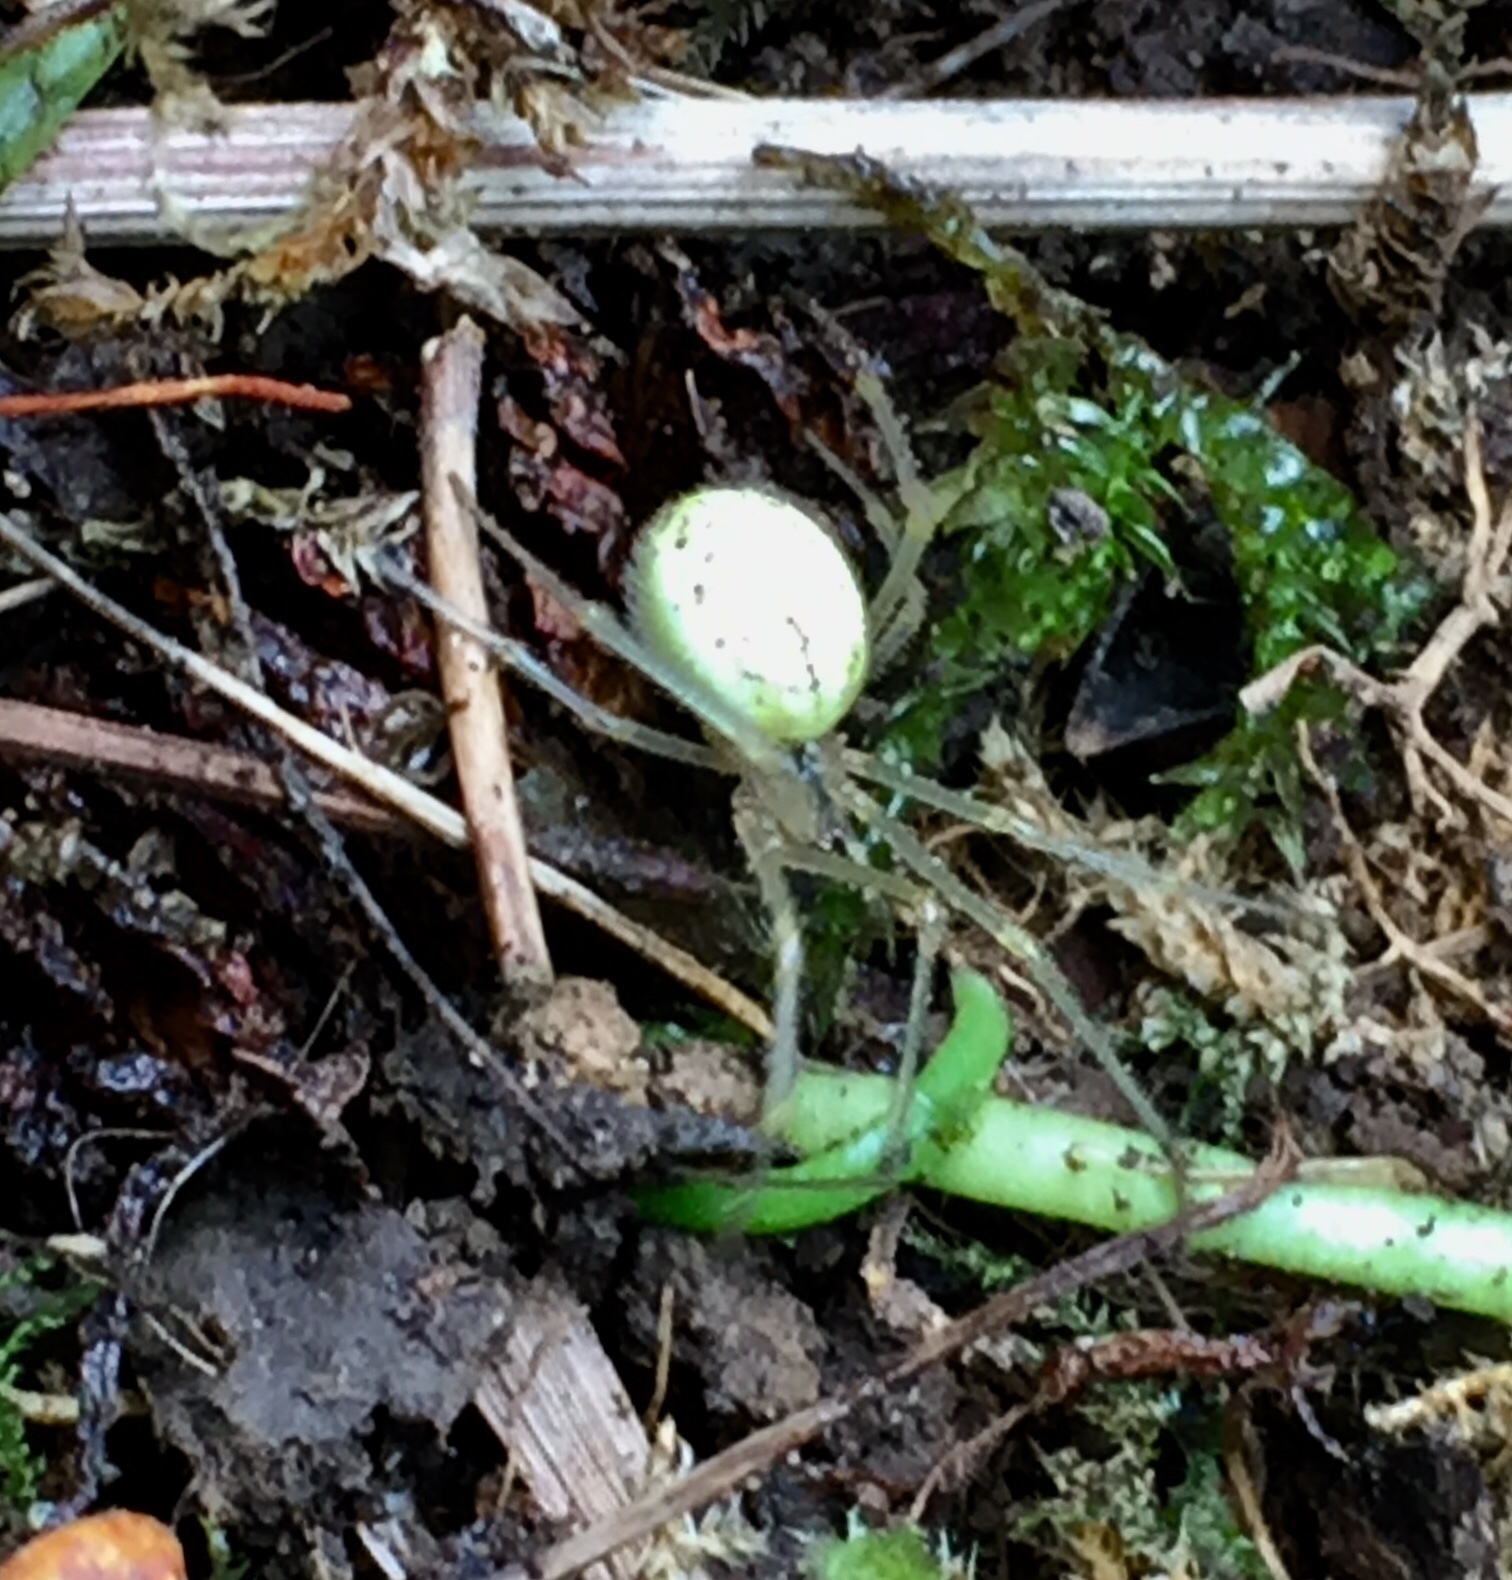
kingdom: Animalia
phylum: Arthropoda
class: Arachnida
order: Araneae
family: Theridiidae
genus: Enoplognatha
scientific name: Enoplognatha ovata
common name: Common candy-striped spider
